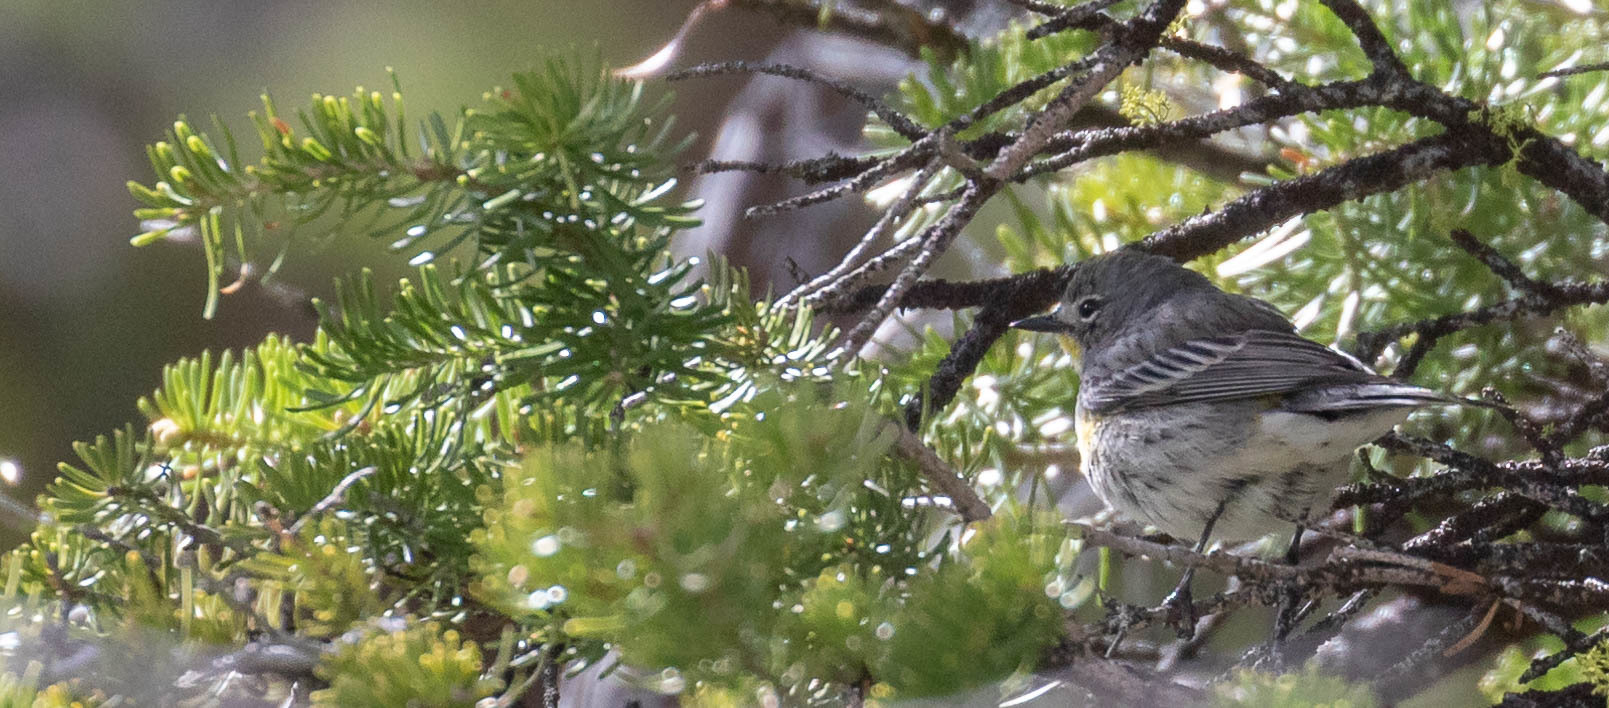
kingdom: Animalia
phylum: Chordata
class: Aves
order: Passeriformes
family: Parulidae
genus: Setophaga
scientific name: Setophaga coronata
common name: Myrtle warbler
